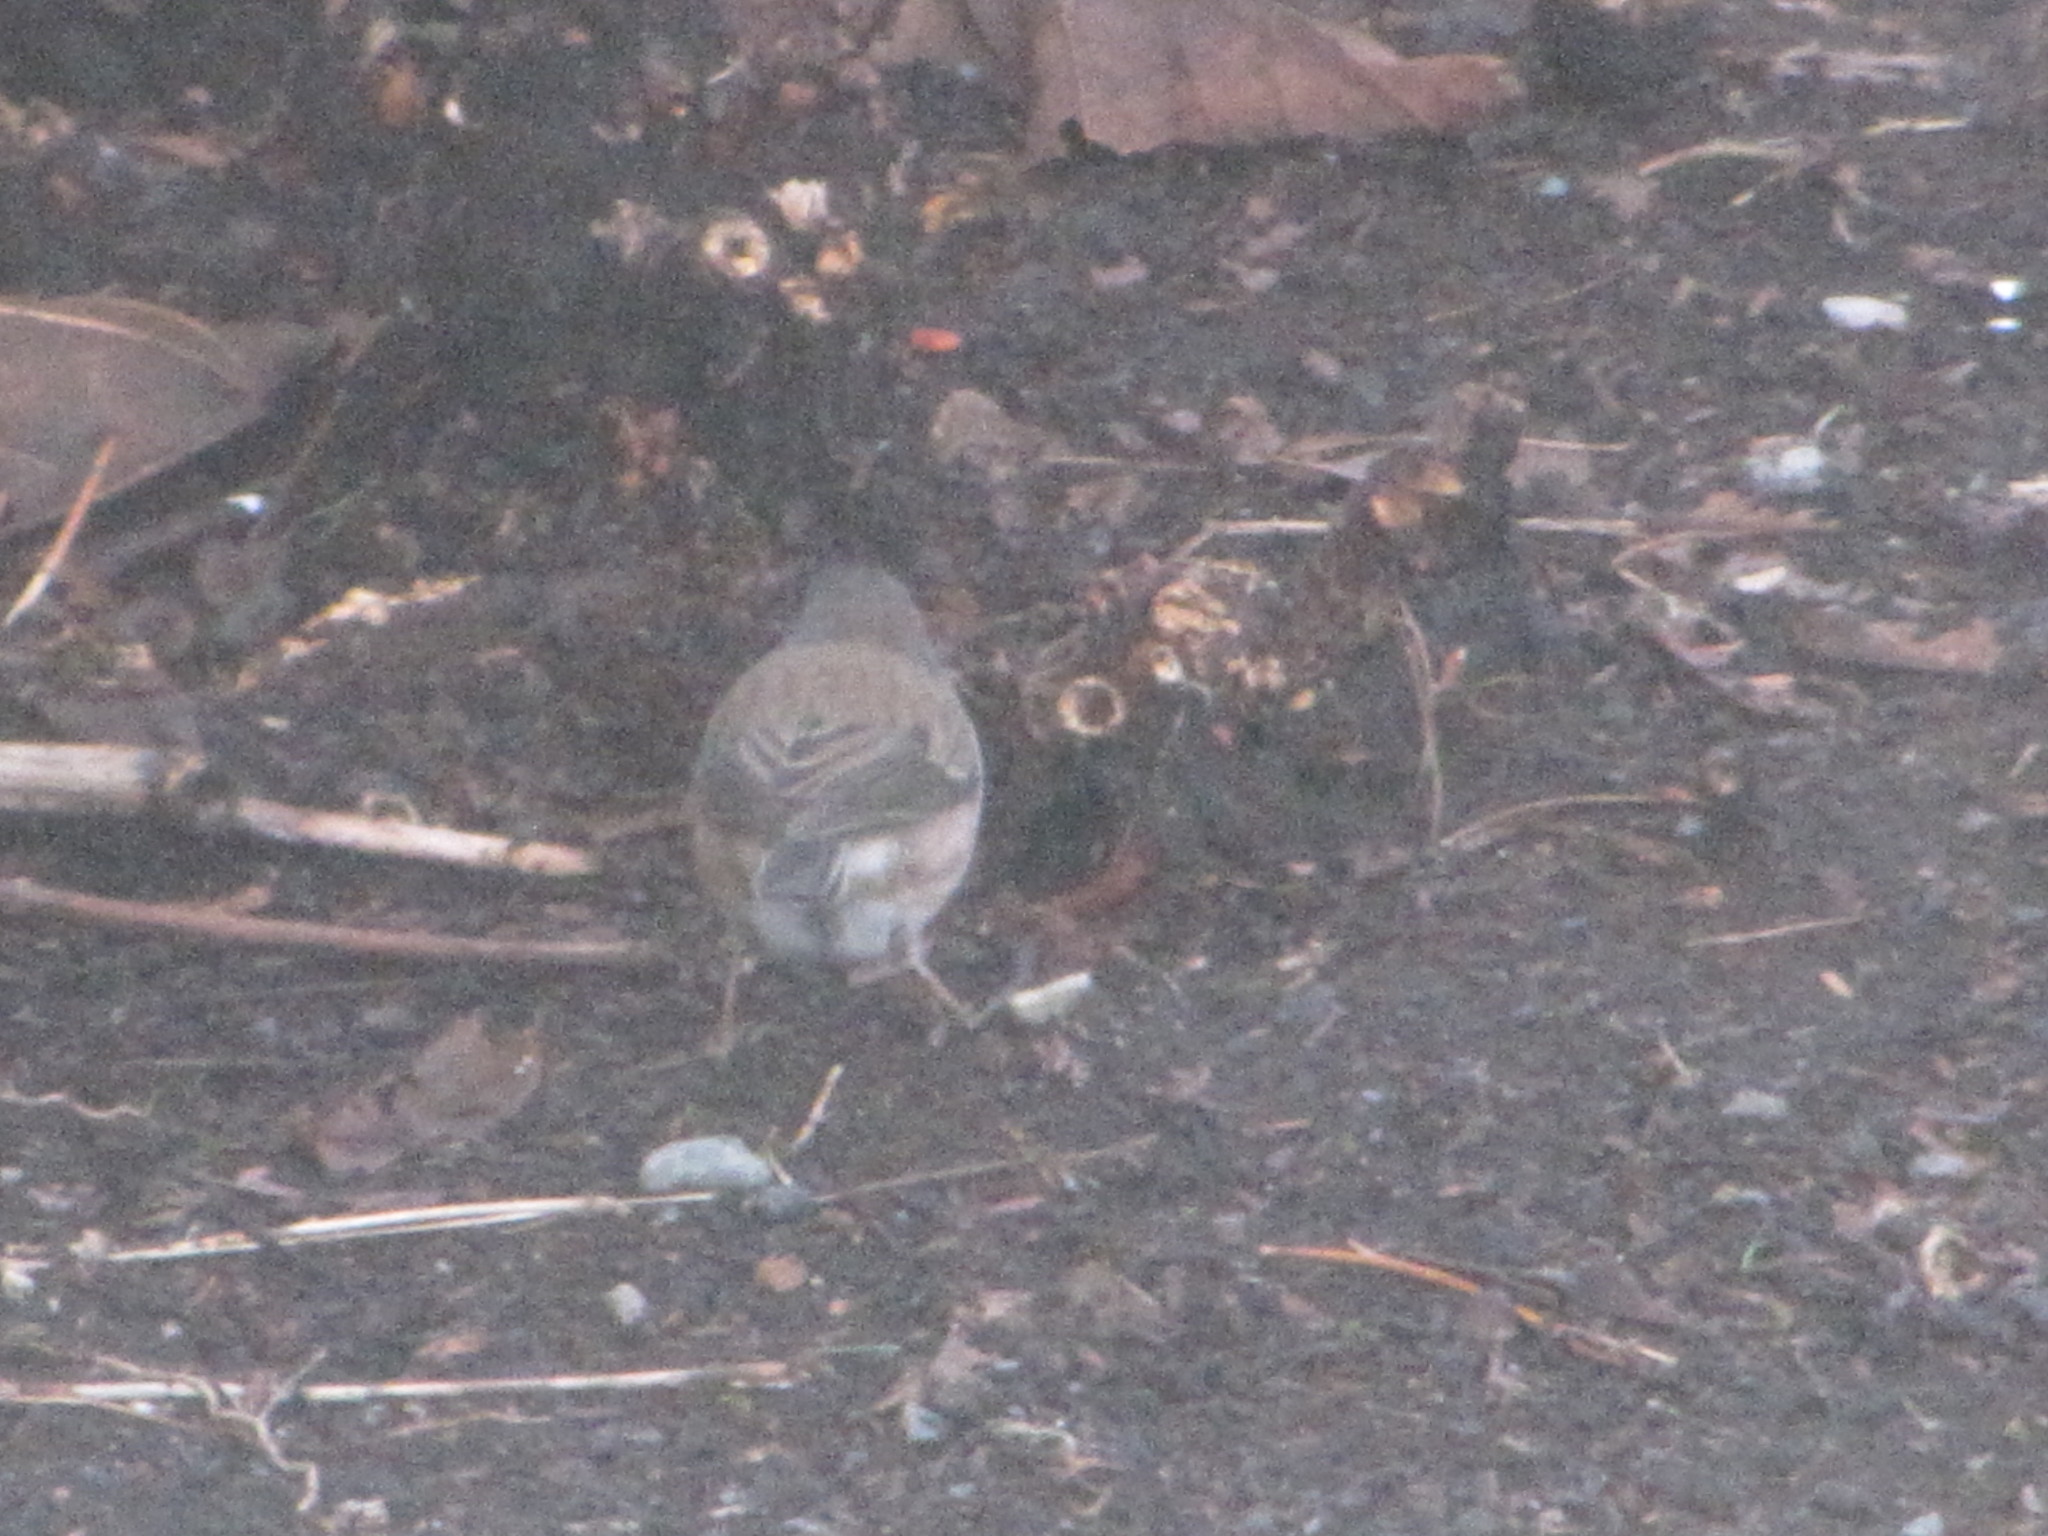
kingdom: Animalia
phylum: Chordata
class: Aves
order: Passeriformes
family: Passerellidae
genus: Junco
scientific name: Junco hyemalis
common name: Dark-eyed junco
